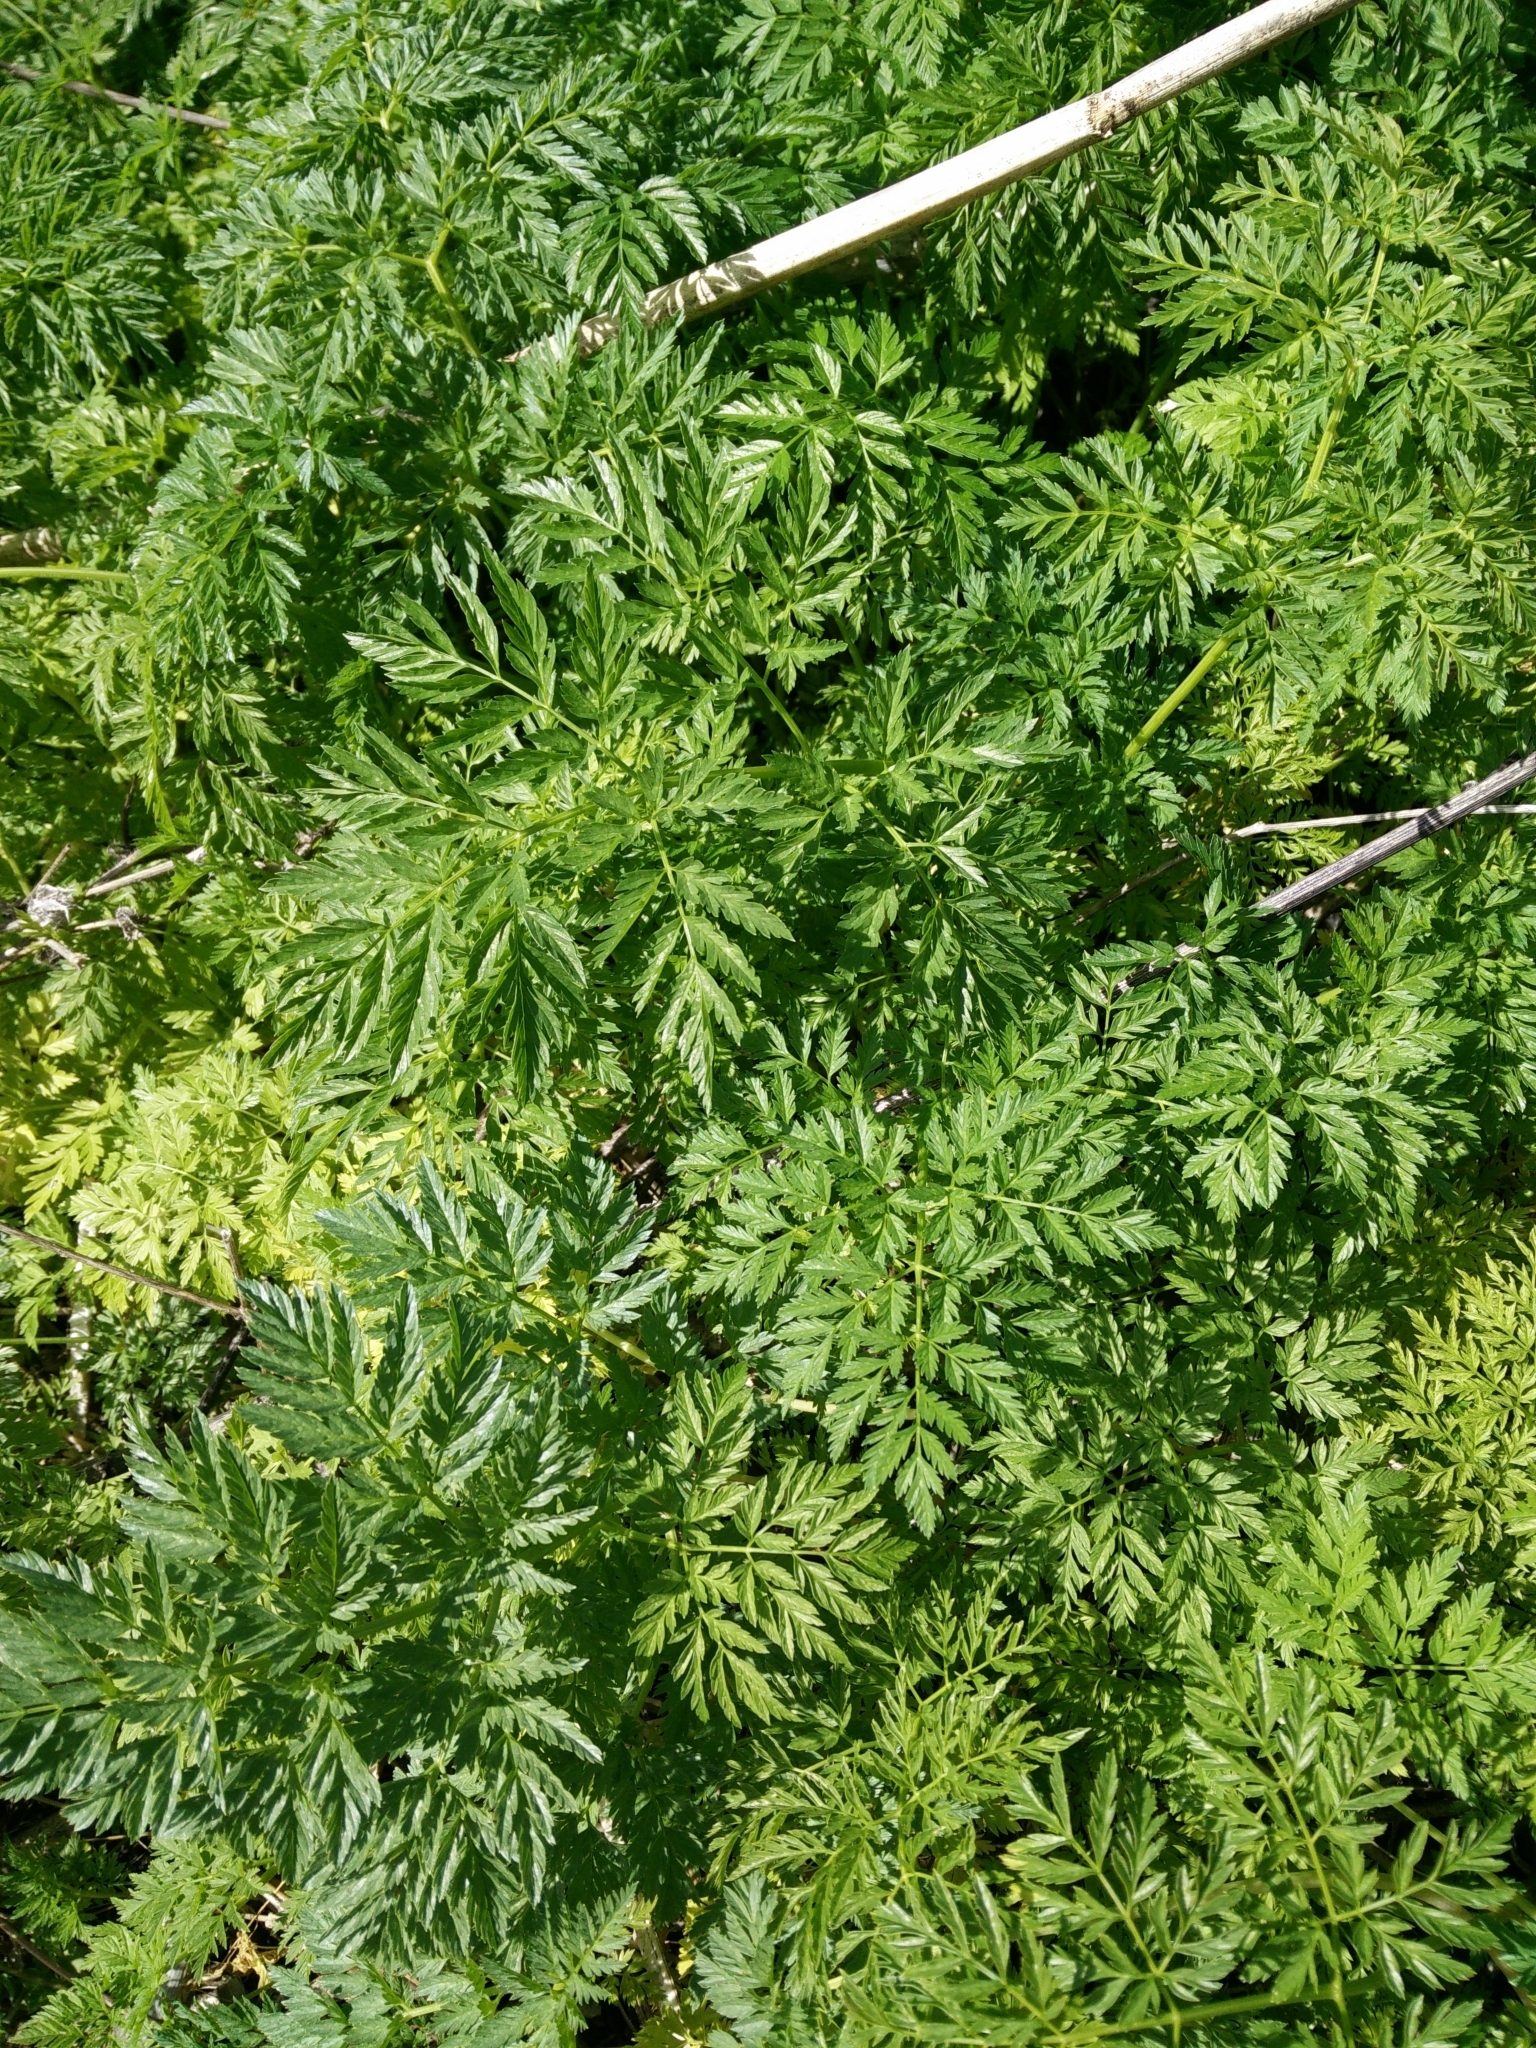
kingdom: Plantae
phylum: Tracheophyta
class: Magnoliopsida
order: Apiales
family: Apiaceae
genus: Conium
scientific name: Conium maculatum
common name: Hemlock
